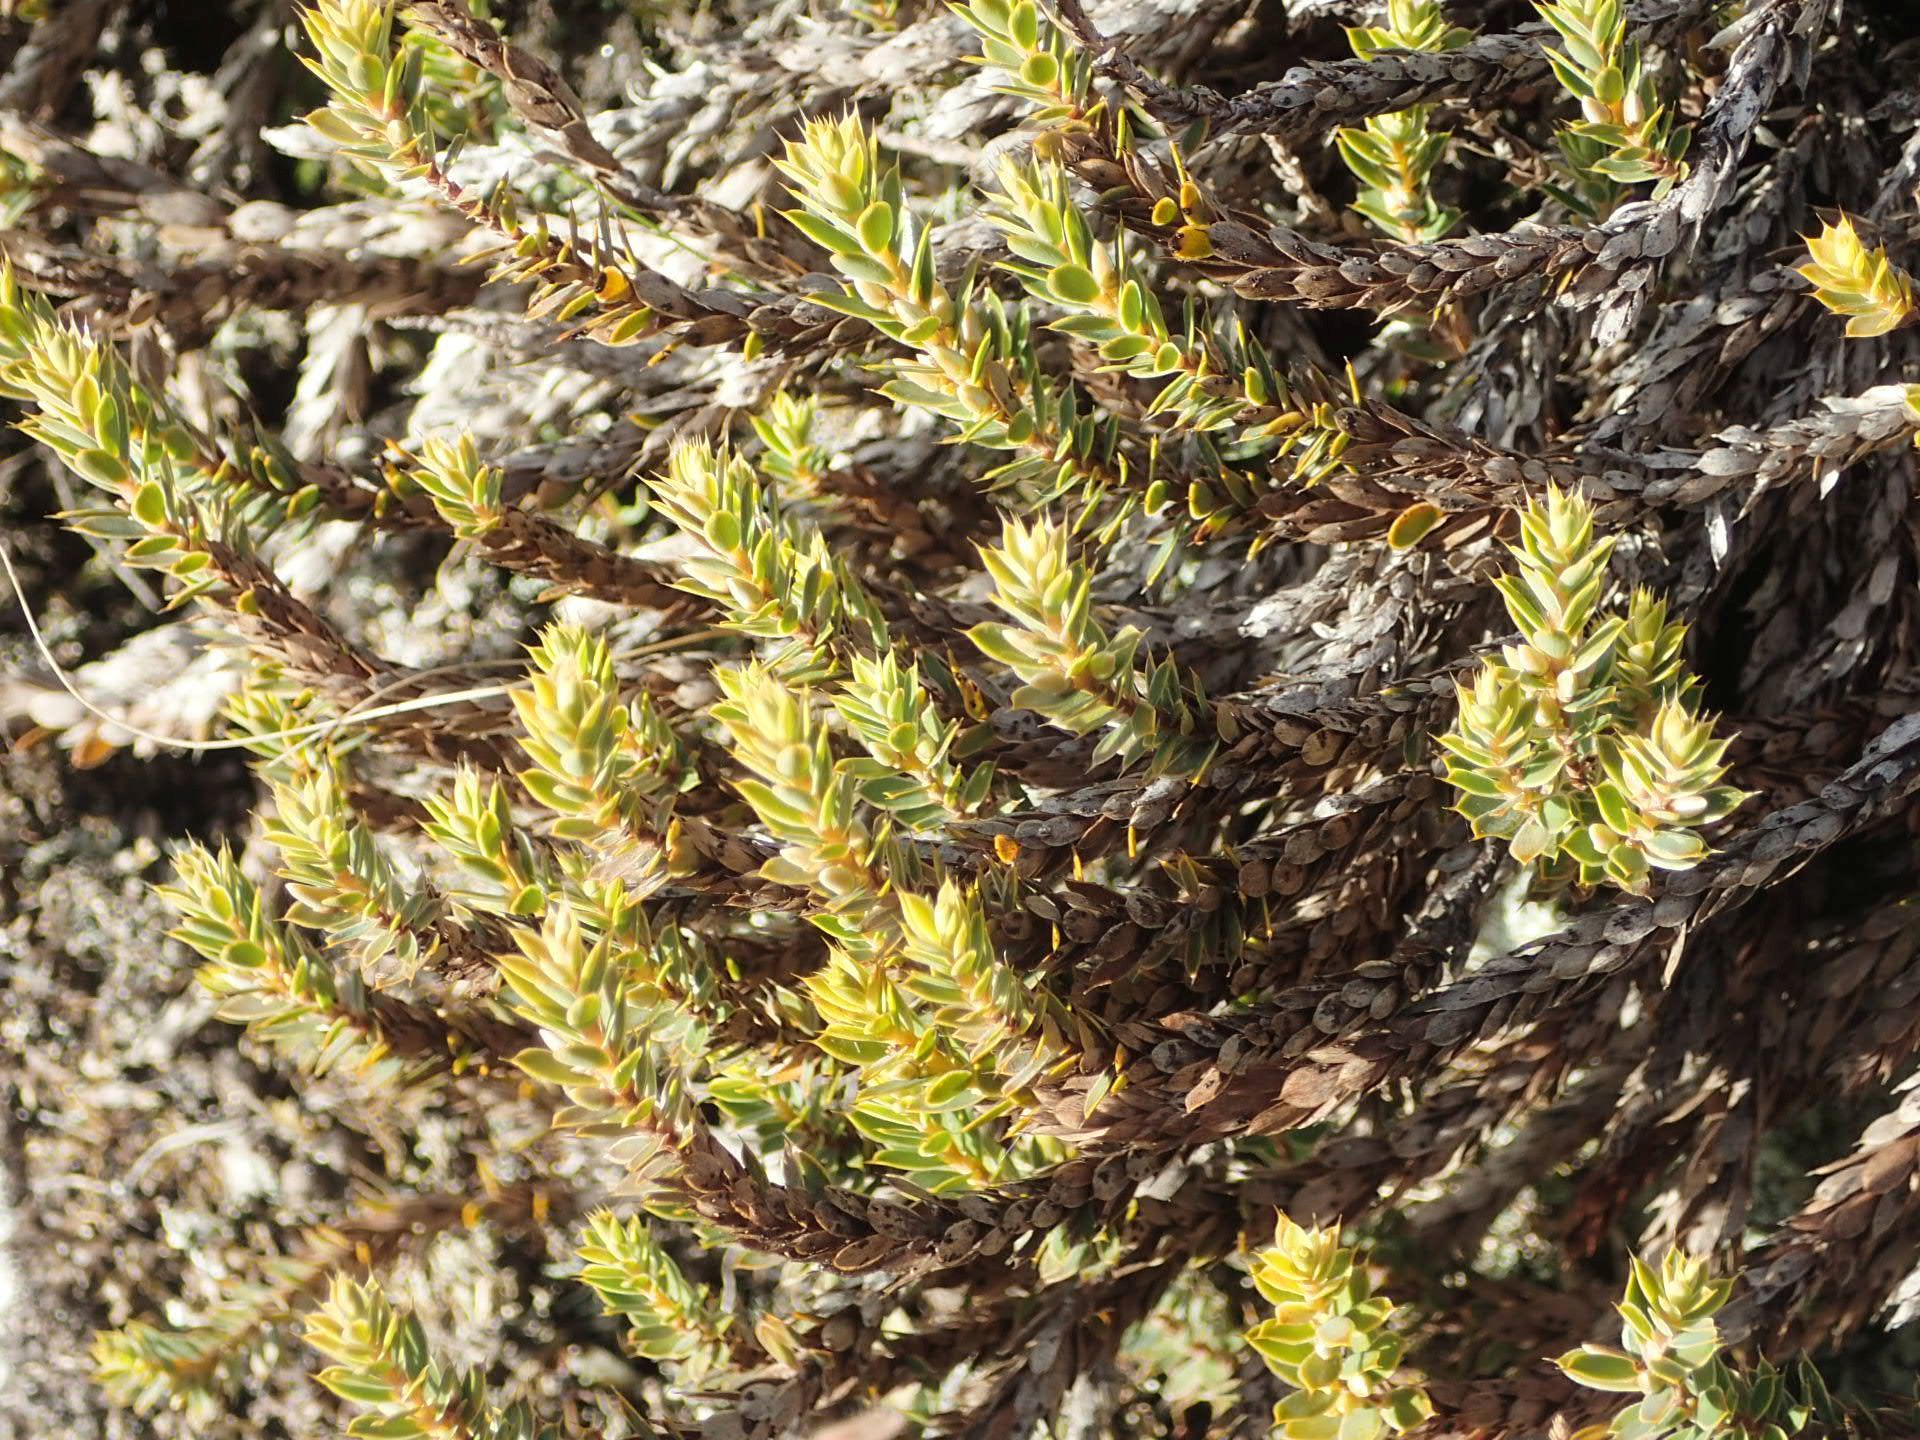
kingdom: Plantae
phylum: Tracheophyta
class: Magnoliopsida
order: Ericales
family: Ericaceae
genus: Styphelia
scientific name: Styphelia nesophila
